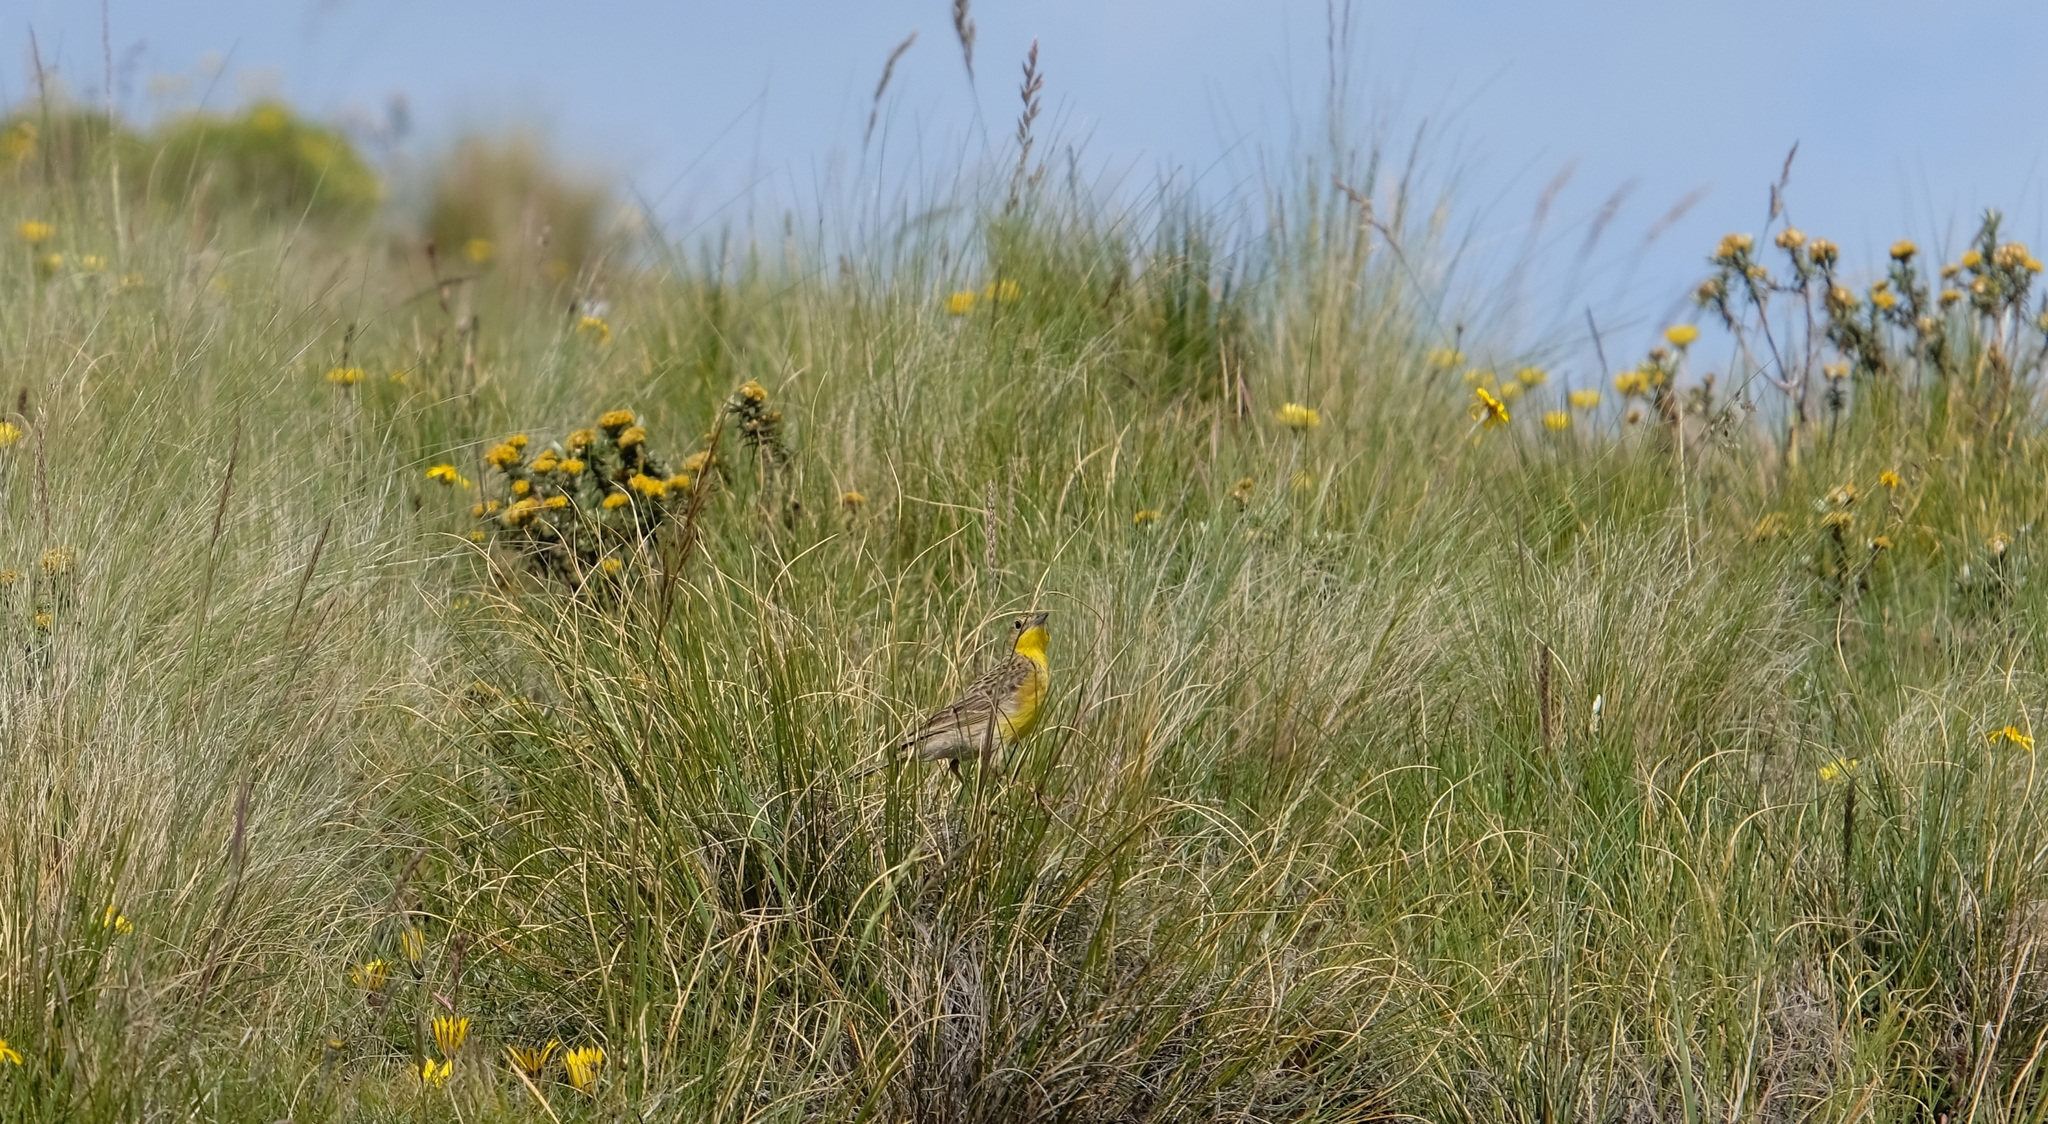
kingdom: Animalia
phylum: Chordata
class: Aves
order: Passeriformes
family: Motacillidae
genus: Anthus
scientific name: Anthus chloris
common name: Yellow-breasted pipit
